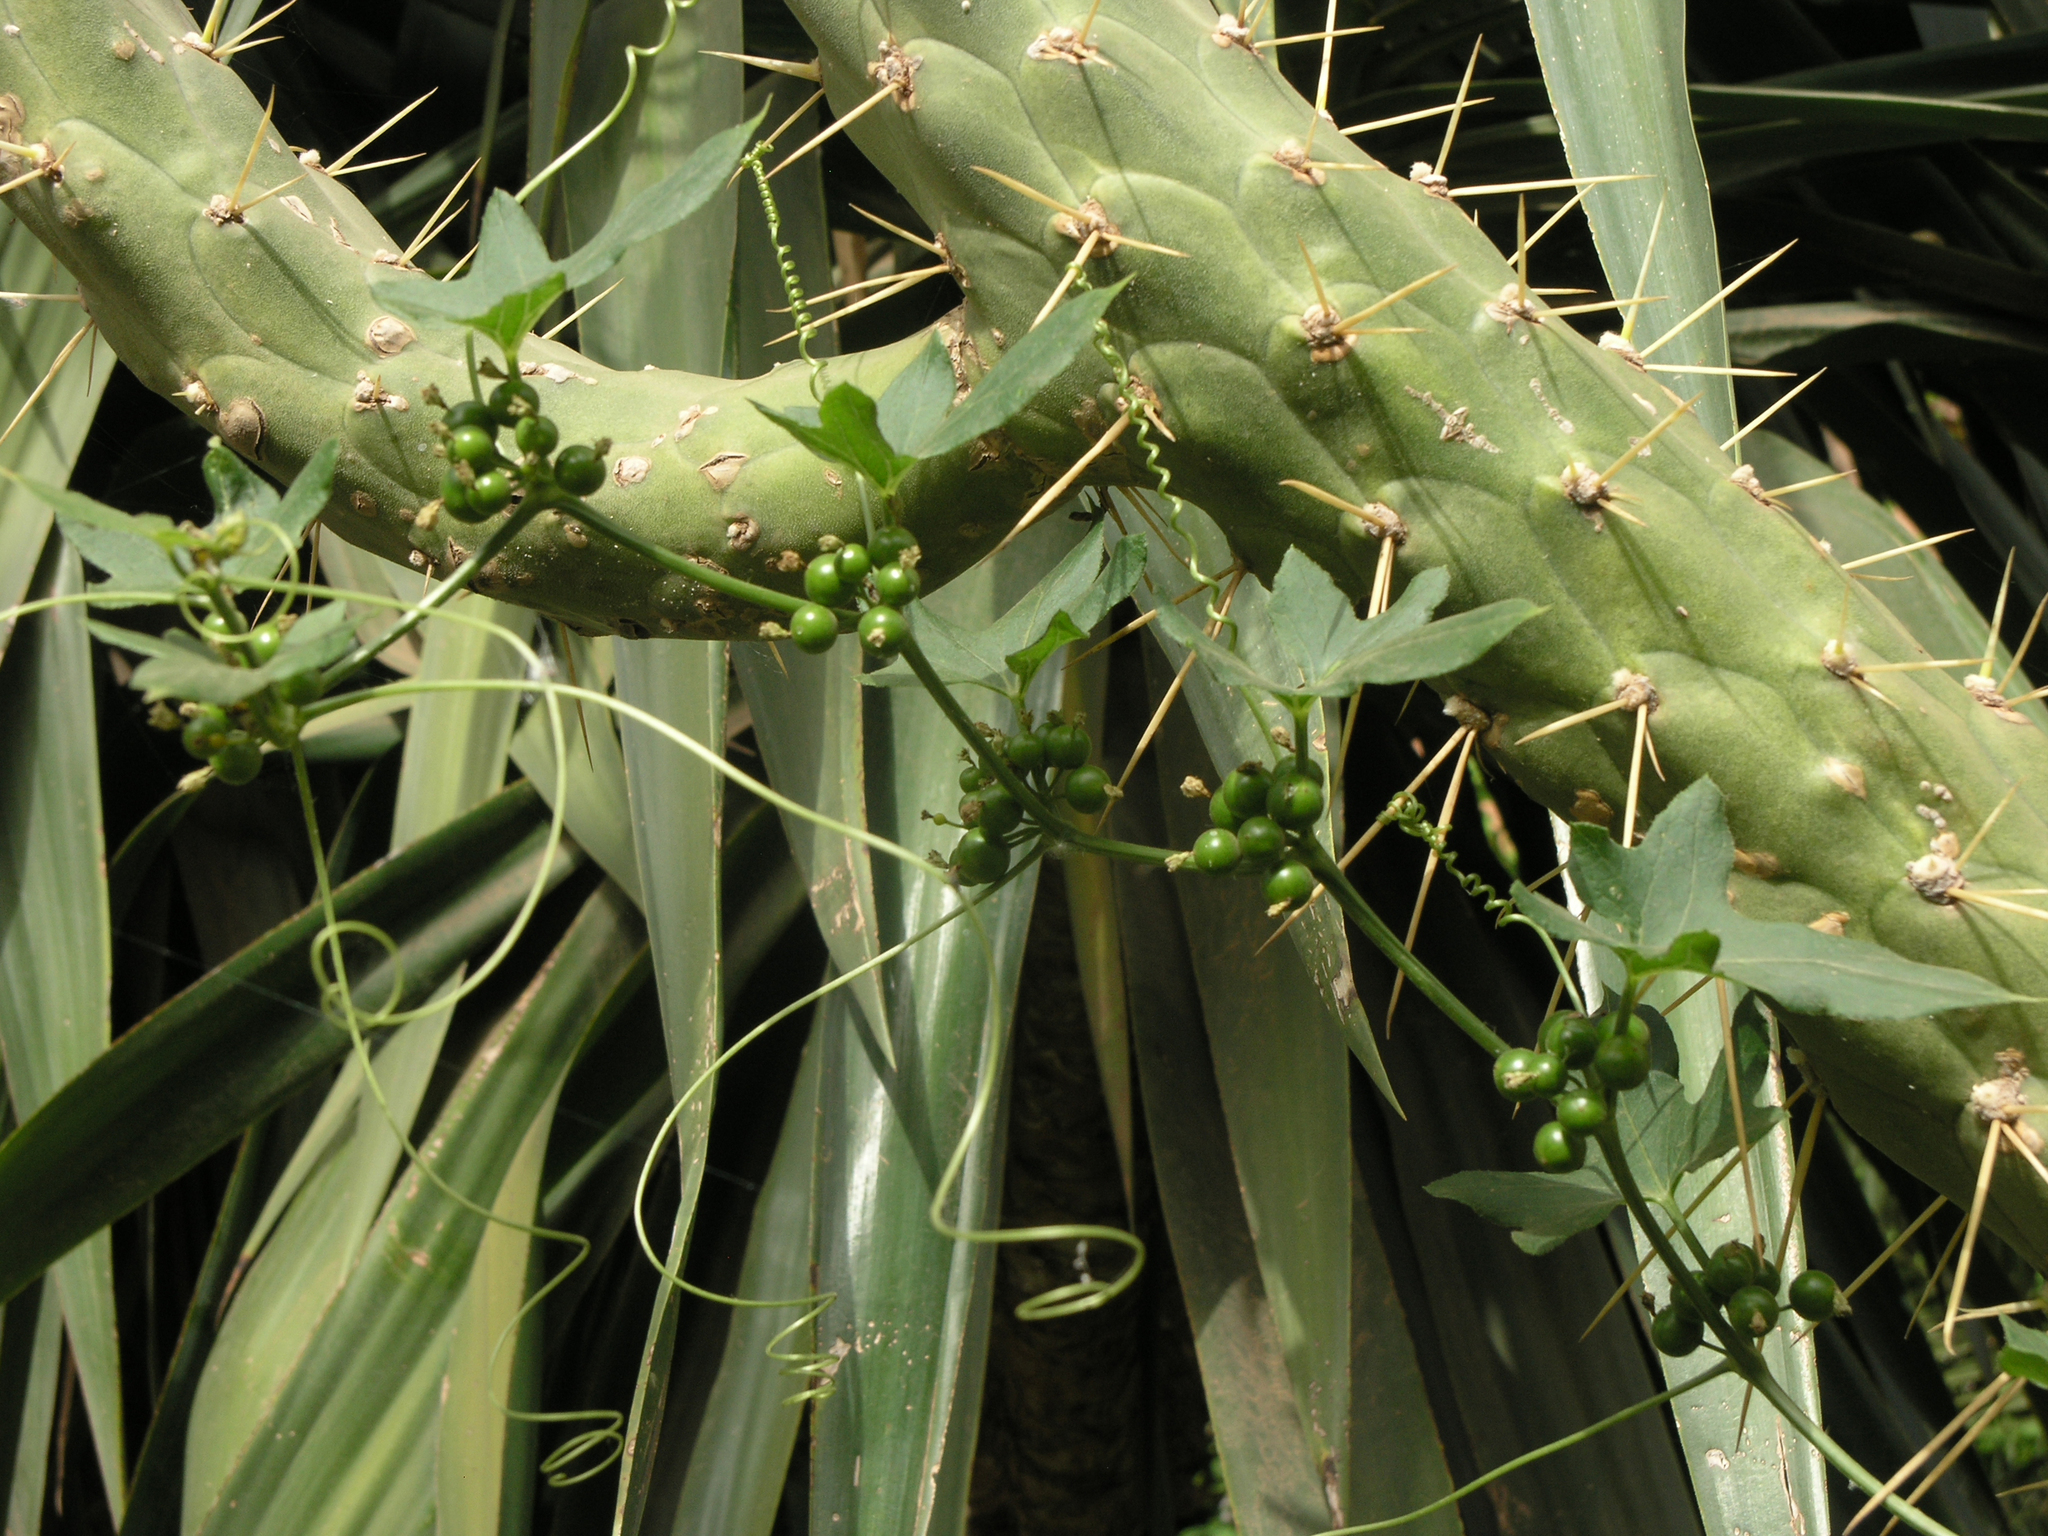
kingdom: Plantae
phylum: Tracheophyta
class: Magnoliopsida
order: Cucurbitales
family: Cucurbitaceae
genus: Bryonia
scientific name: Bryonia cretica
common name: Cretan bryony
